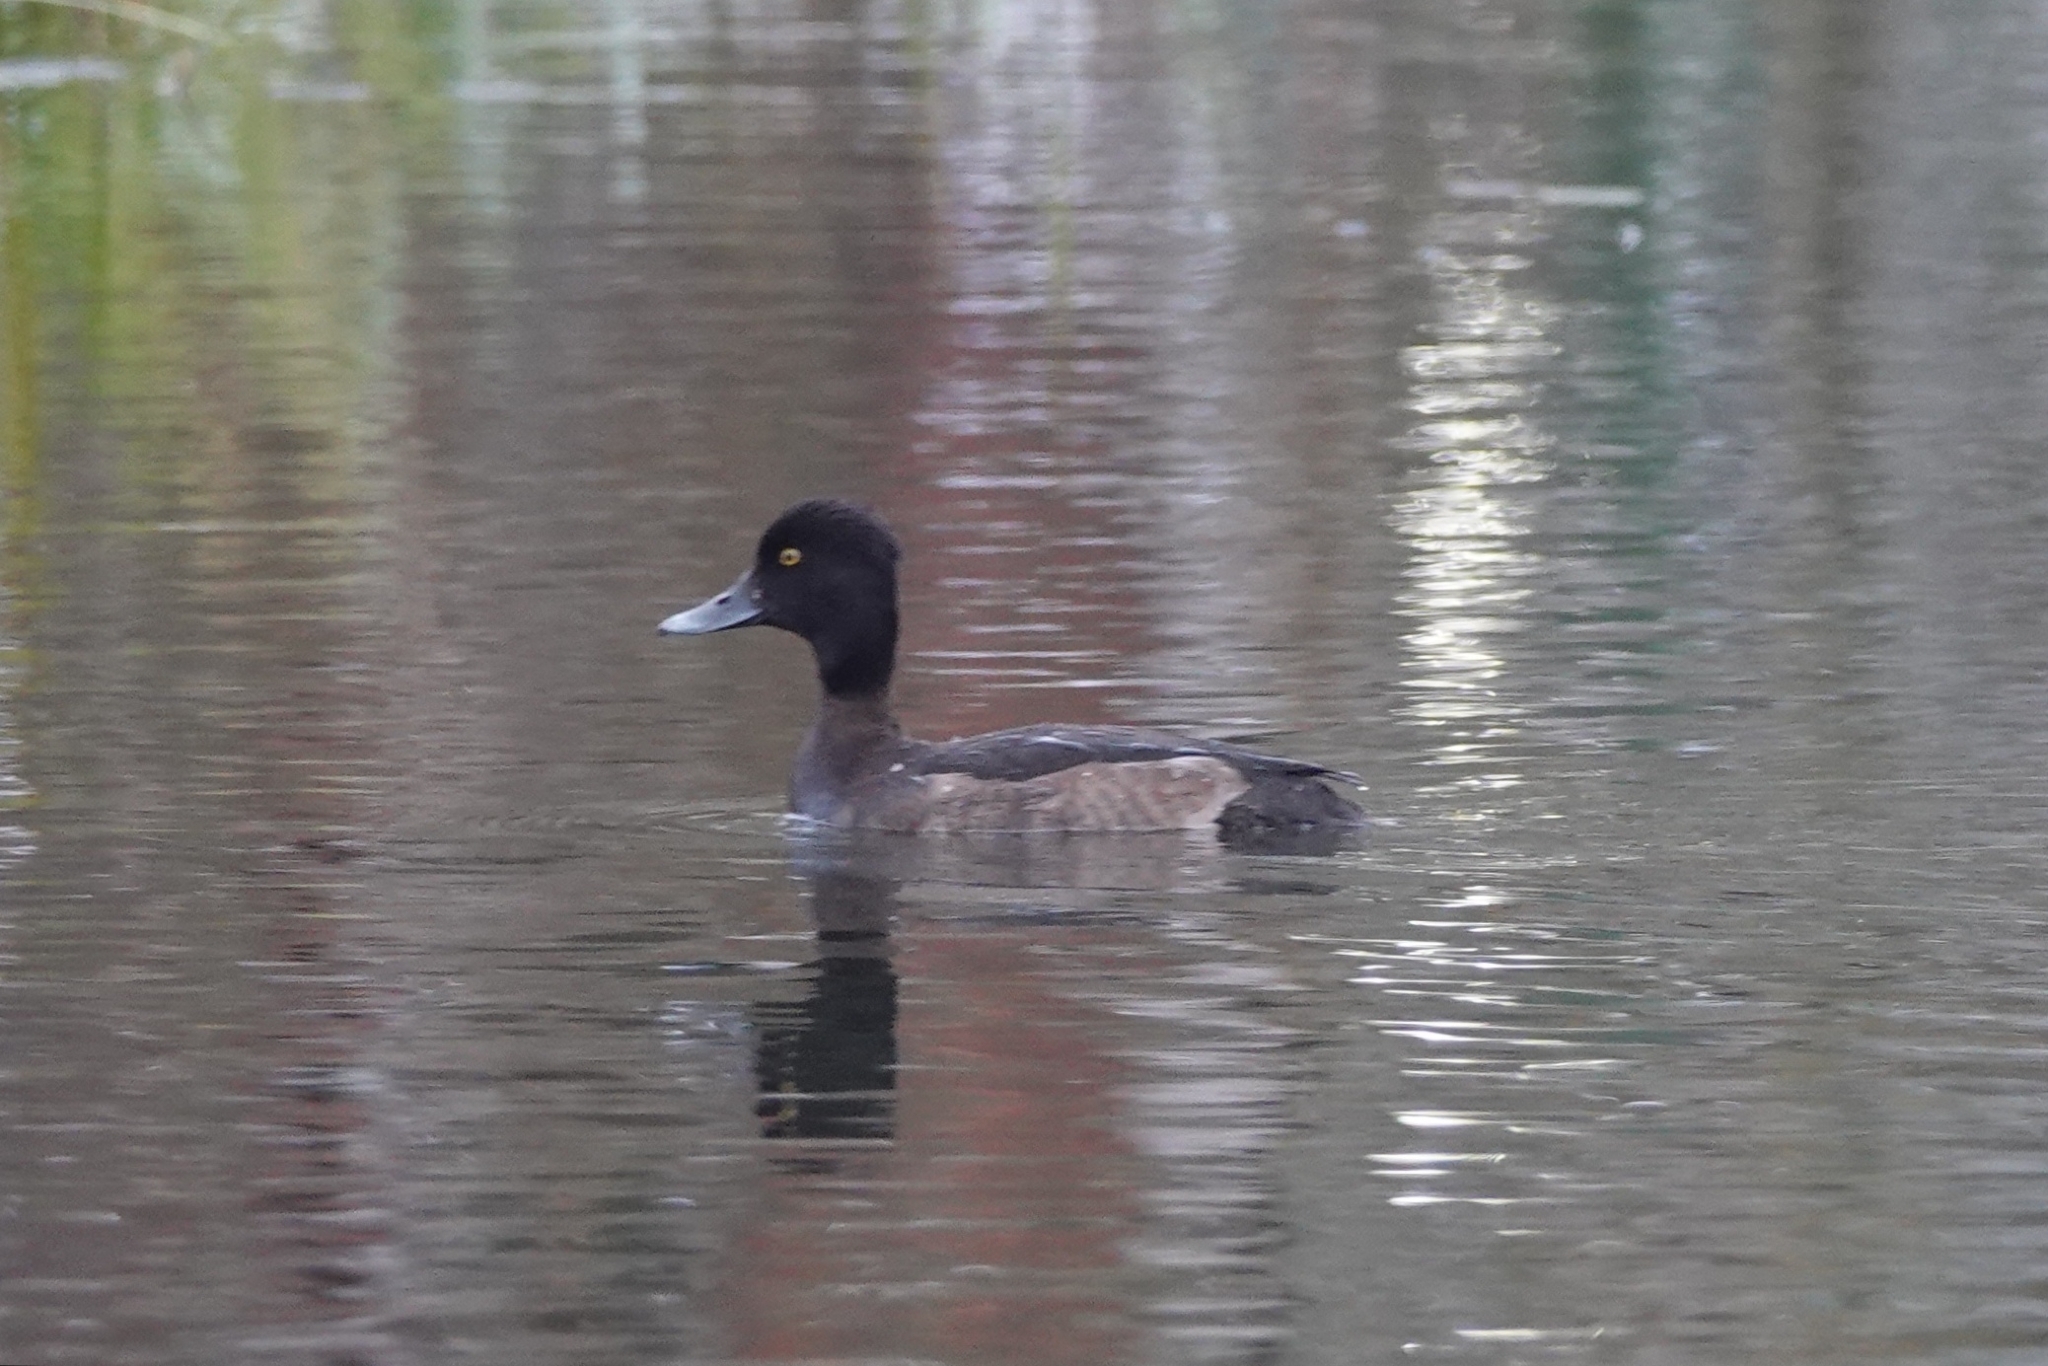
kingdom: Animalia
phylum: Chordata
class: Aves
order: Anseriformes
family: Anatidae
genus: Aythya
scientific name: Aythya fuligula
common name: Tufted duck
